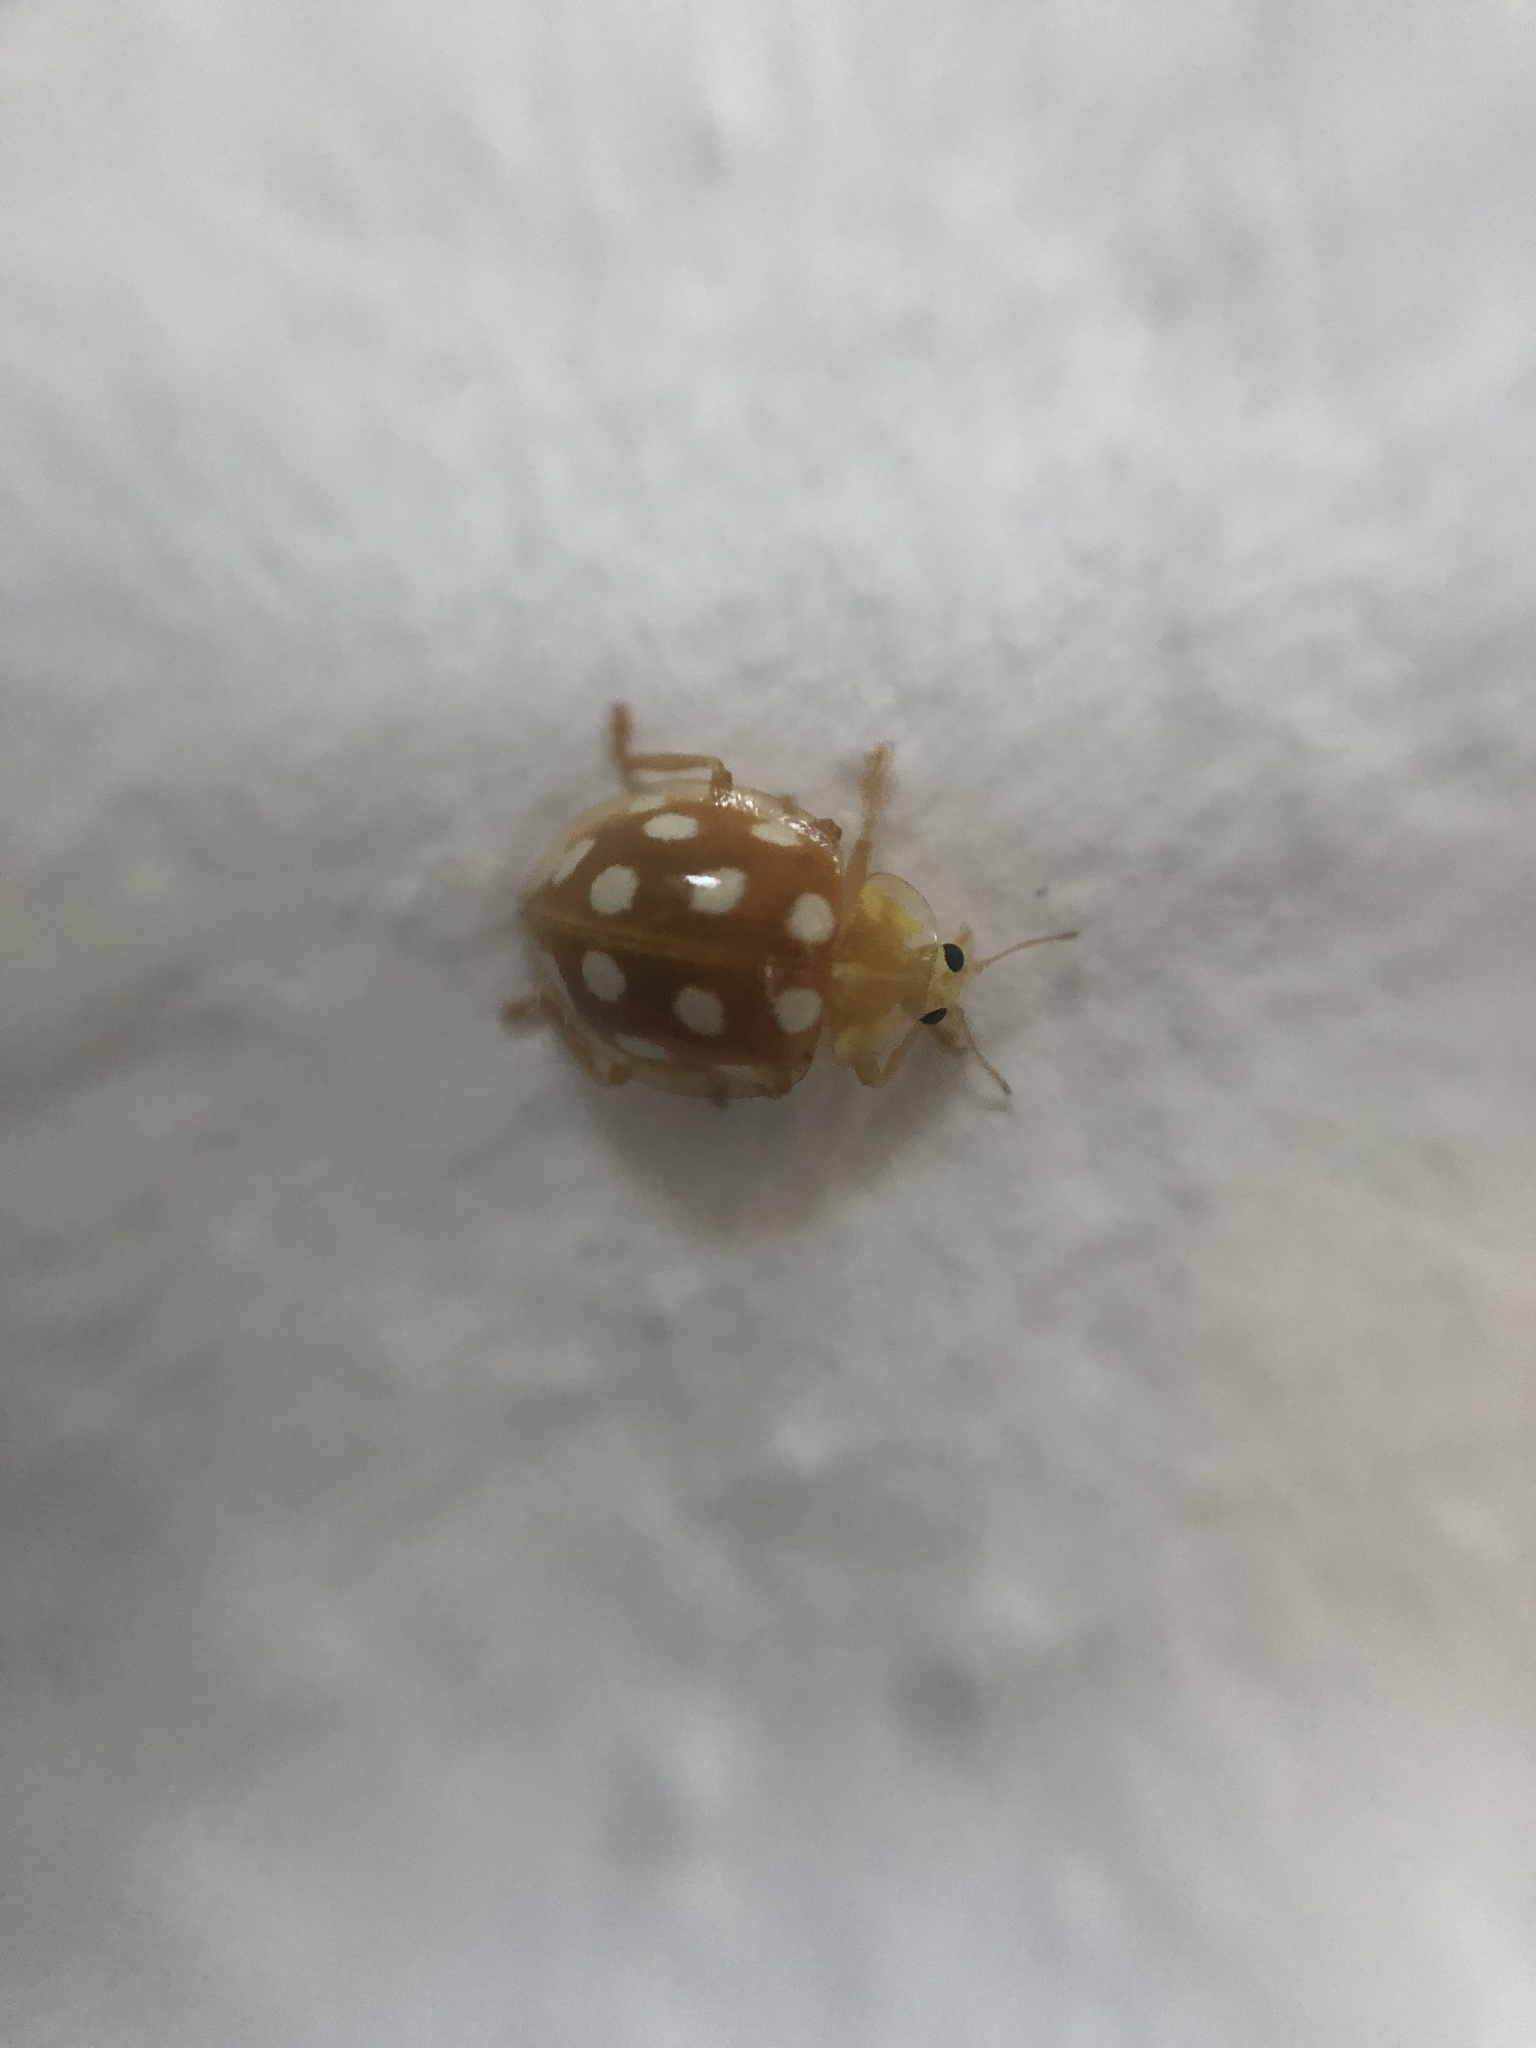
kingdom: Animalia
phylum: Arthropoda
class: Insecta
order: Coleoptera
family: Coccinellidae
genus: Halyzia
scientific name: Halyzia sedecimguttata
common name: Orange ladybird
